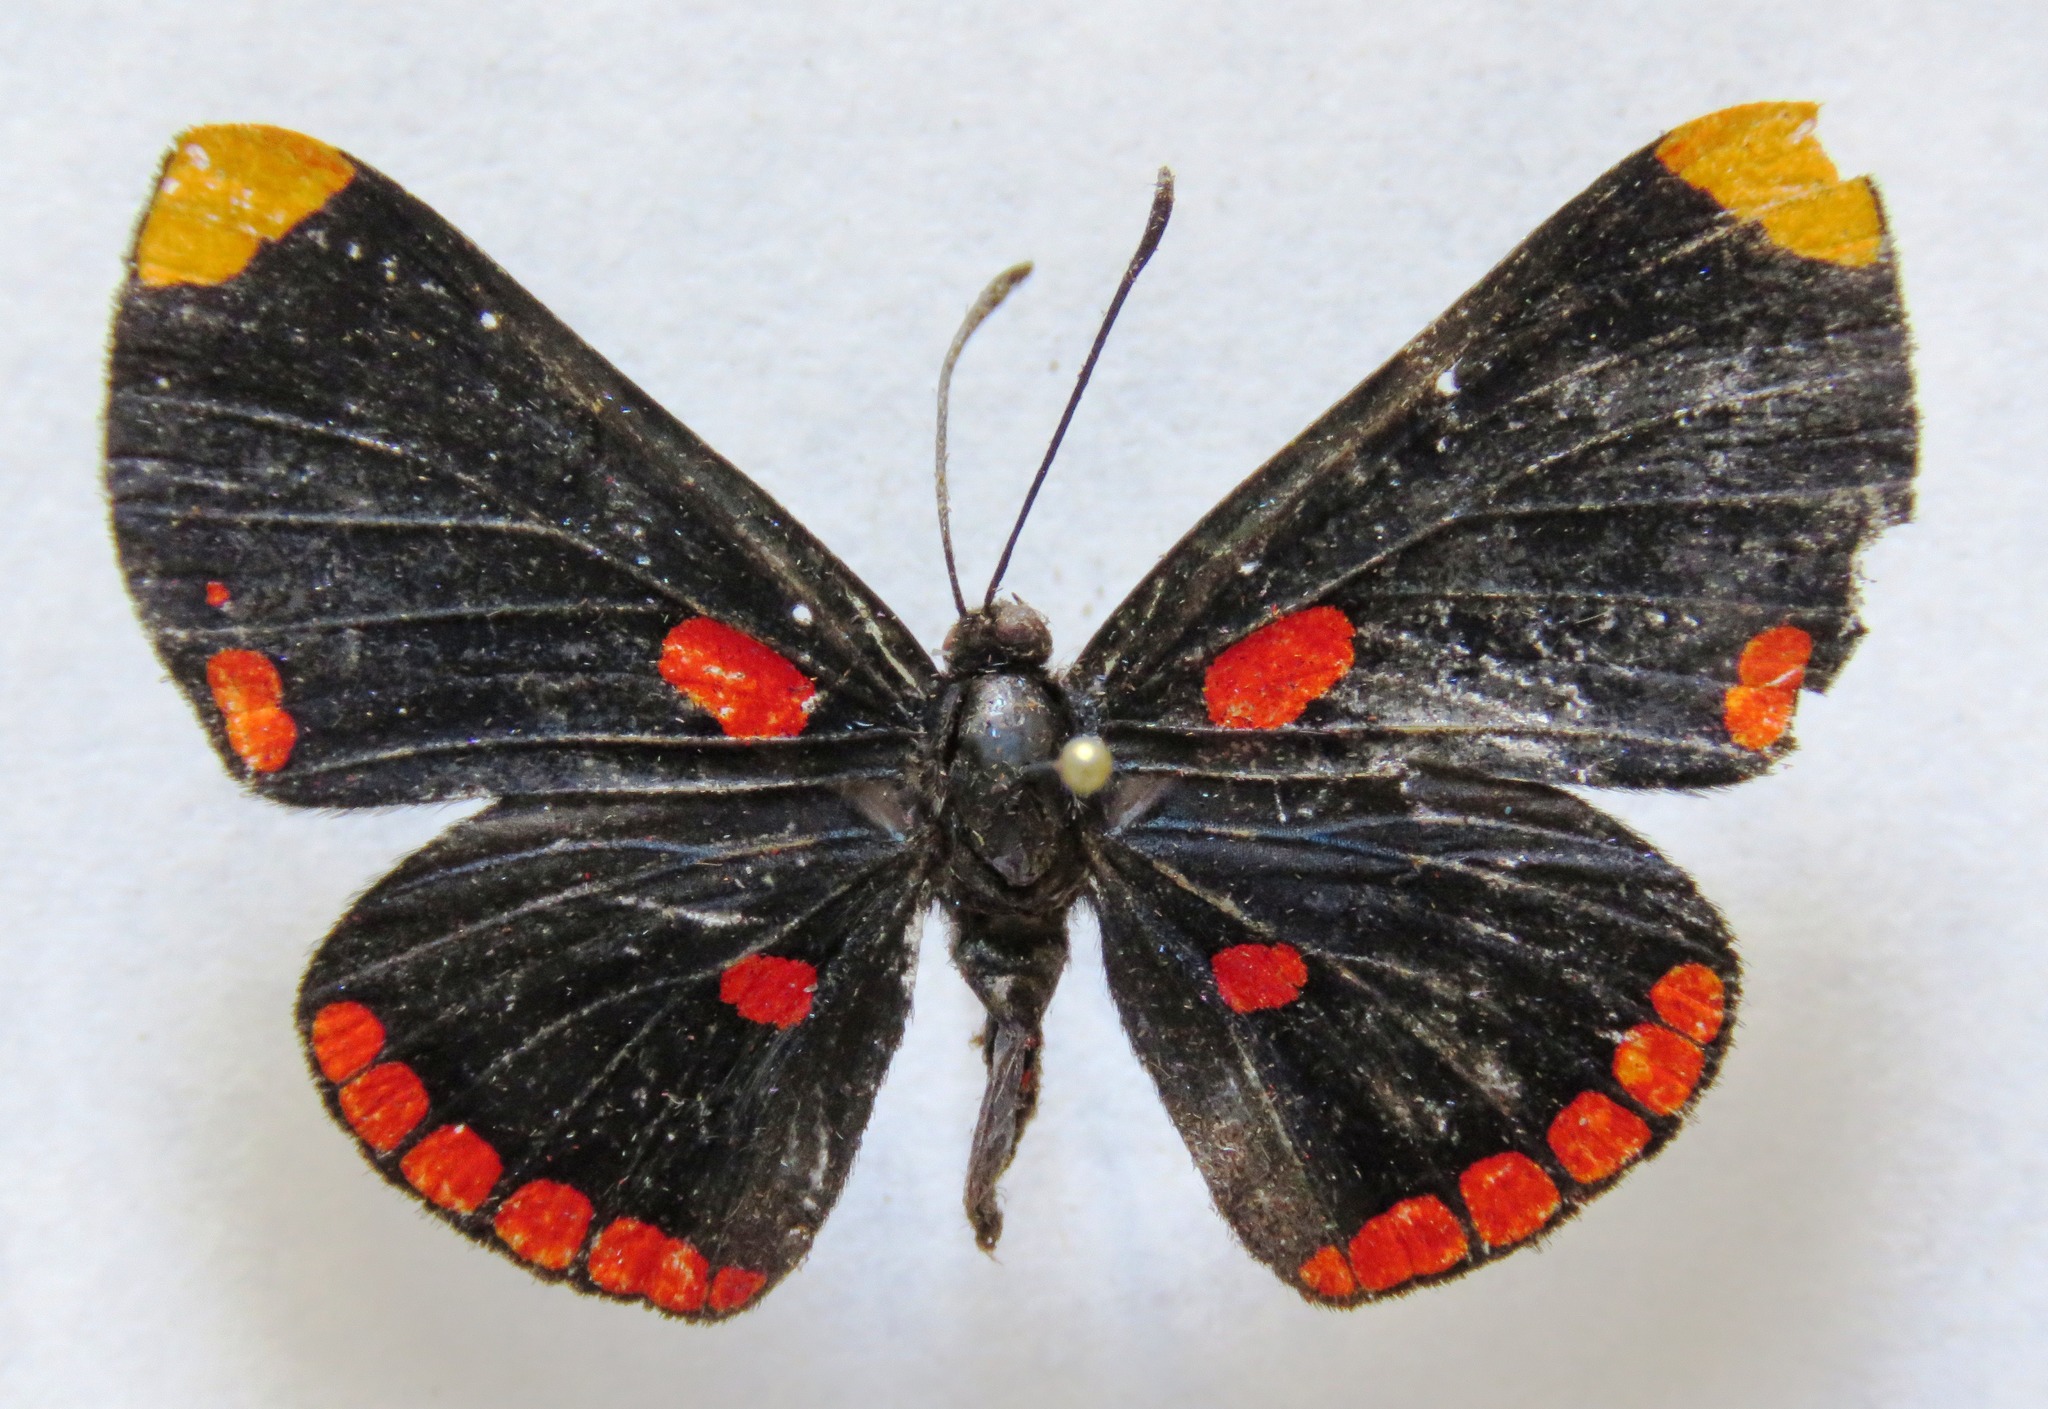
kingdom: Animalia
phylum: Arthropoda
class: Insecta
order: Lepidoptera
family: Lycaenidae
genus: Melanis
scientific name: Melanis pixe
